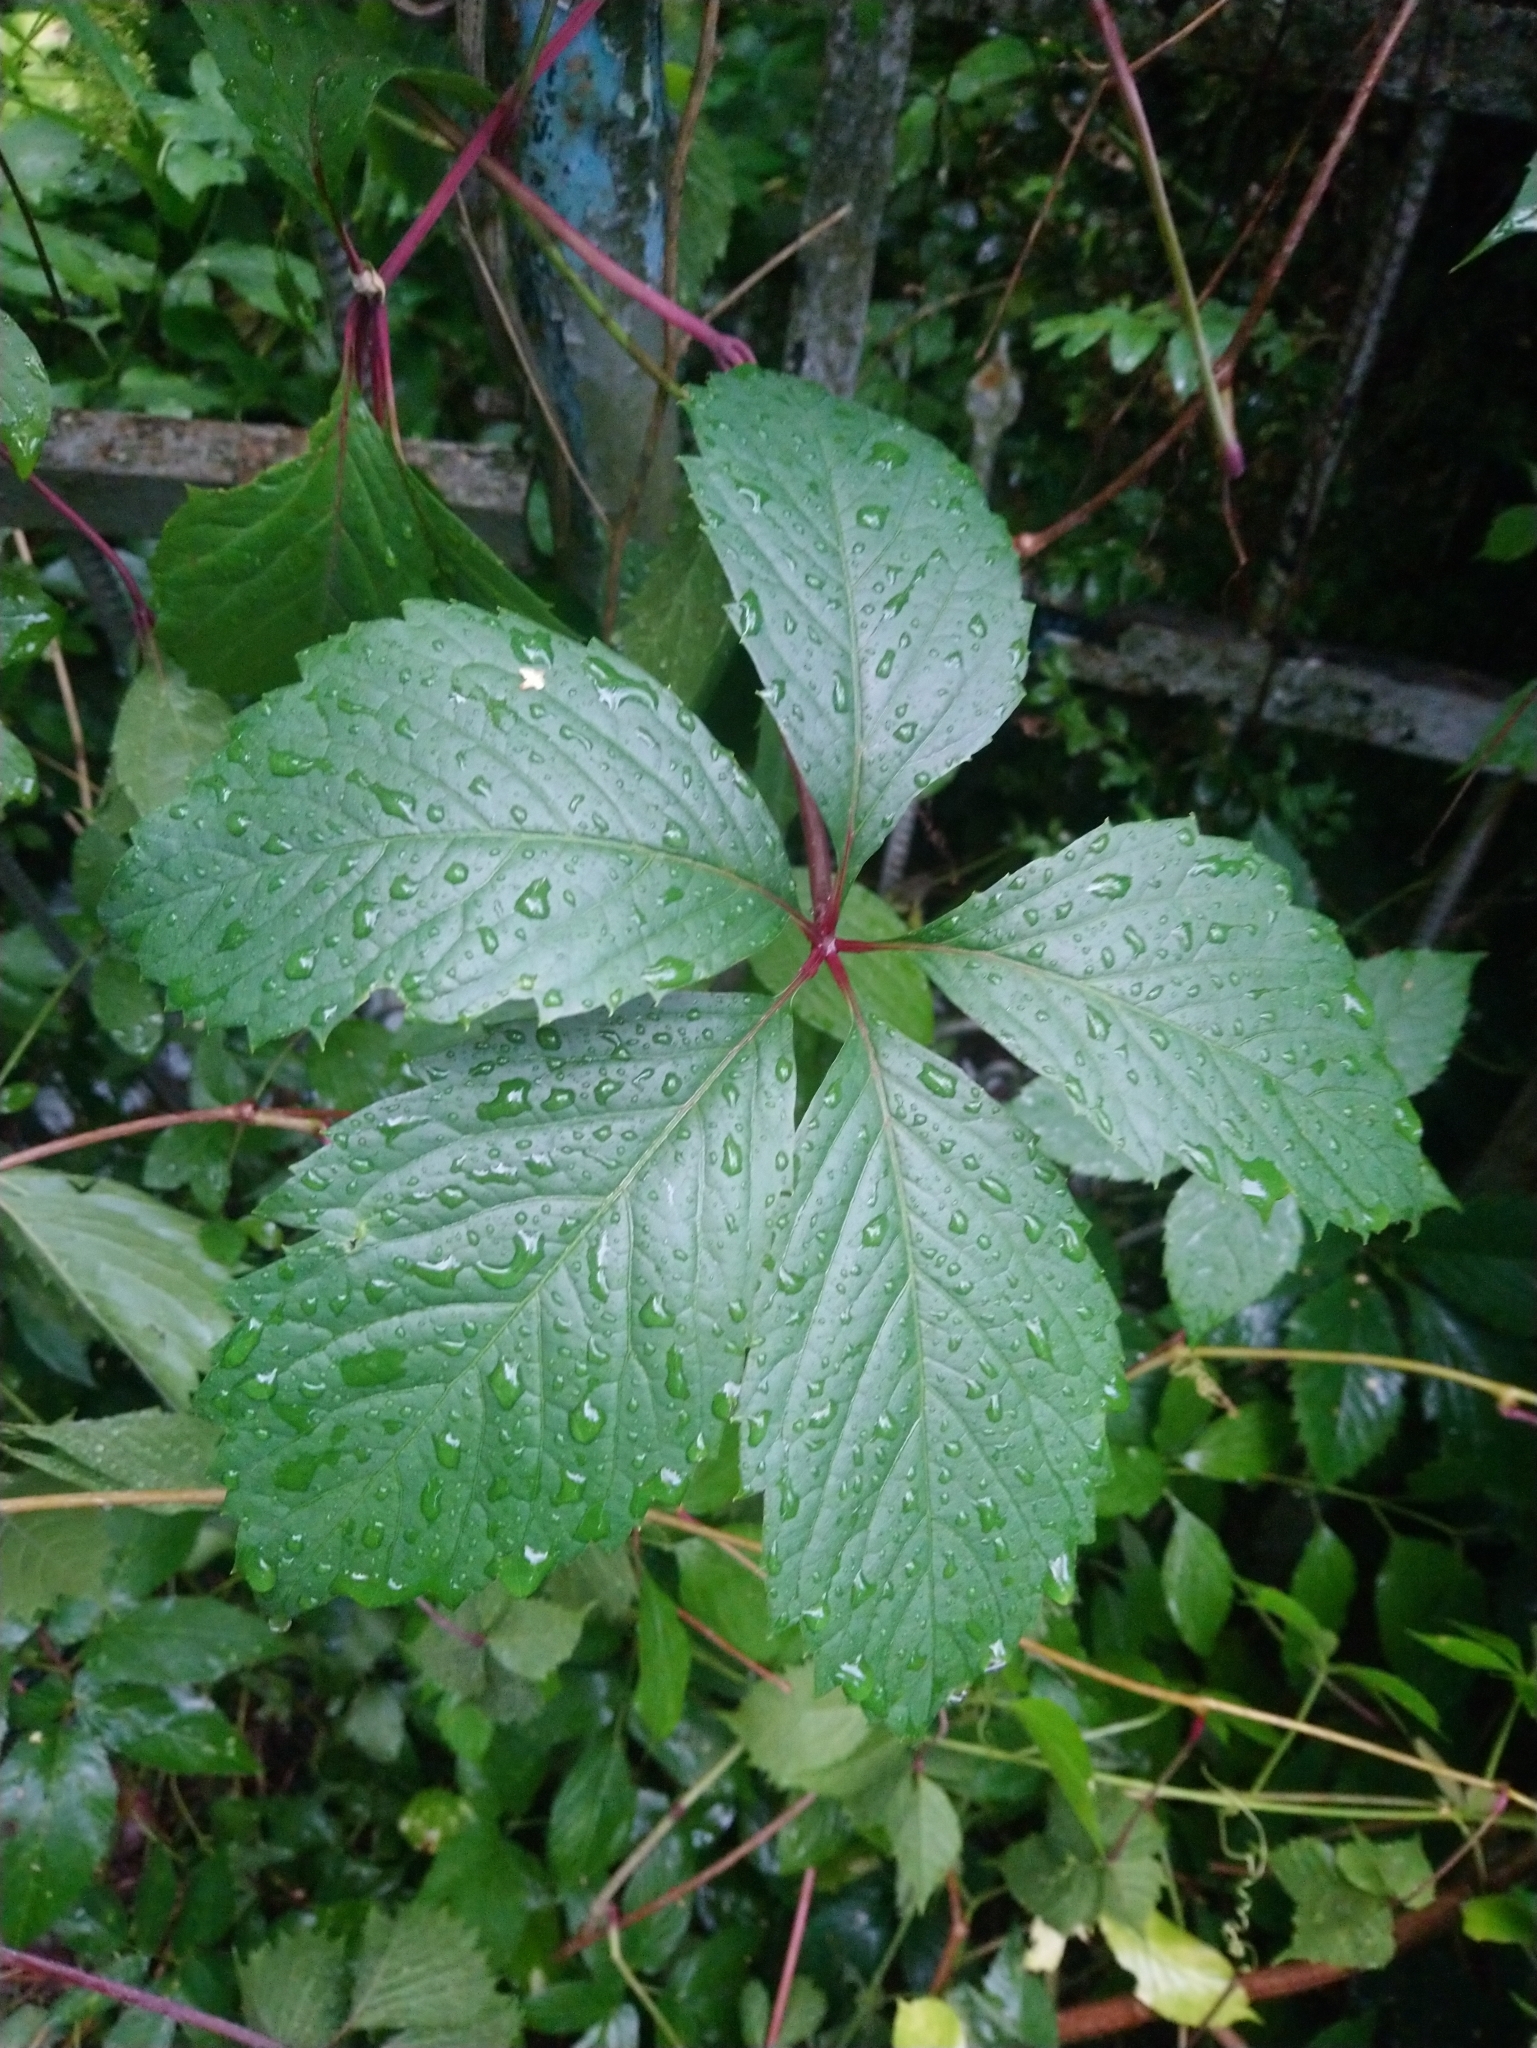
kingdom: Plantae
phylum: Tracheophyta
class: Magnoliopsida
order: Vitales
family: Vitaceae
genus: Parthenocissus
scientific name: Parthenocissus inserta
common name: False virginia-creeper
